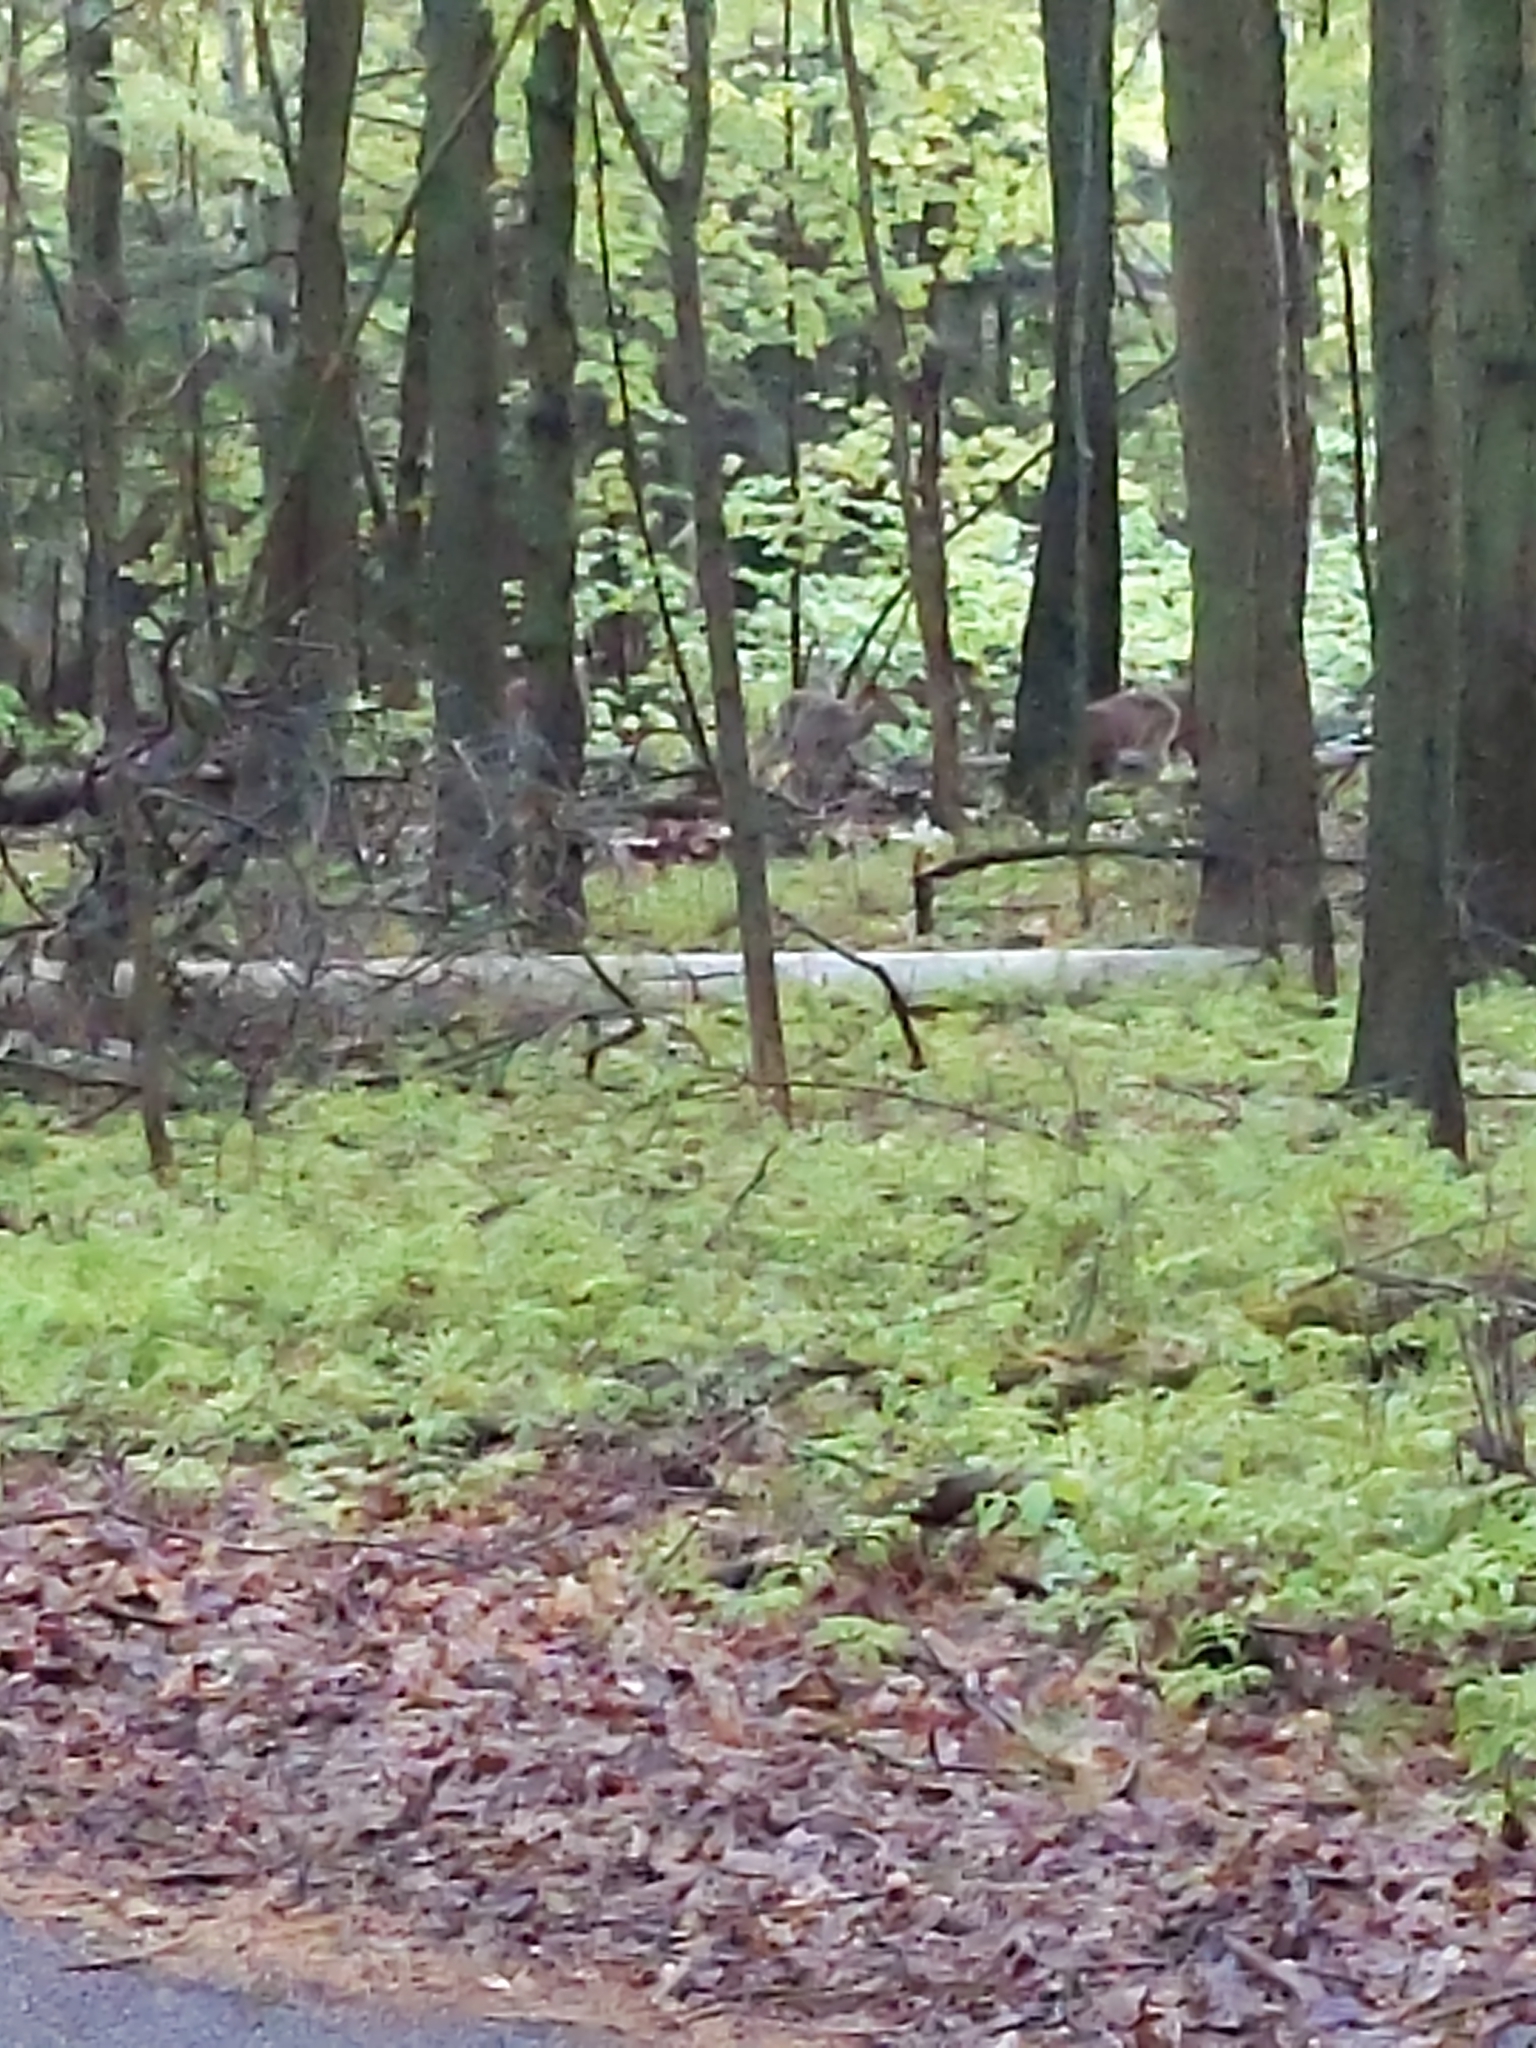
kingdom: Animalia
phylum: Chordata
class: Mammalia
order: Artiodactyla
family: Cervidae
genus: Odocoileus
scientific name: Odocoileus virginianus
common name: White-tailed deer
